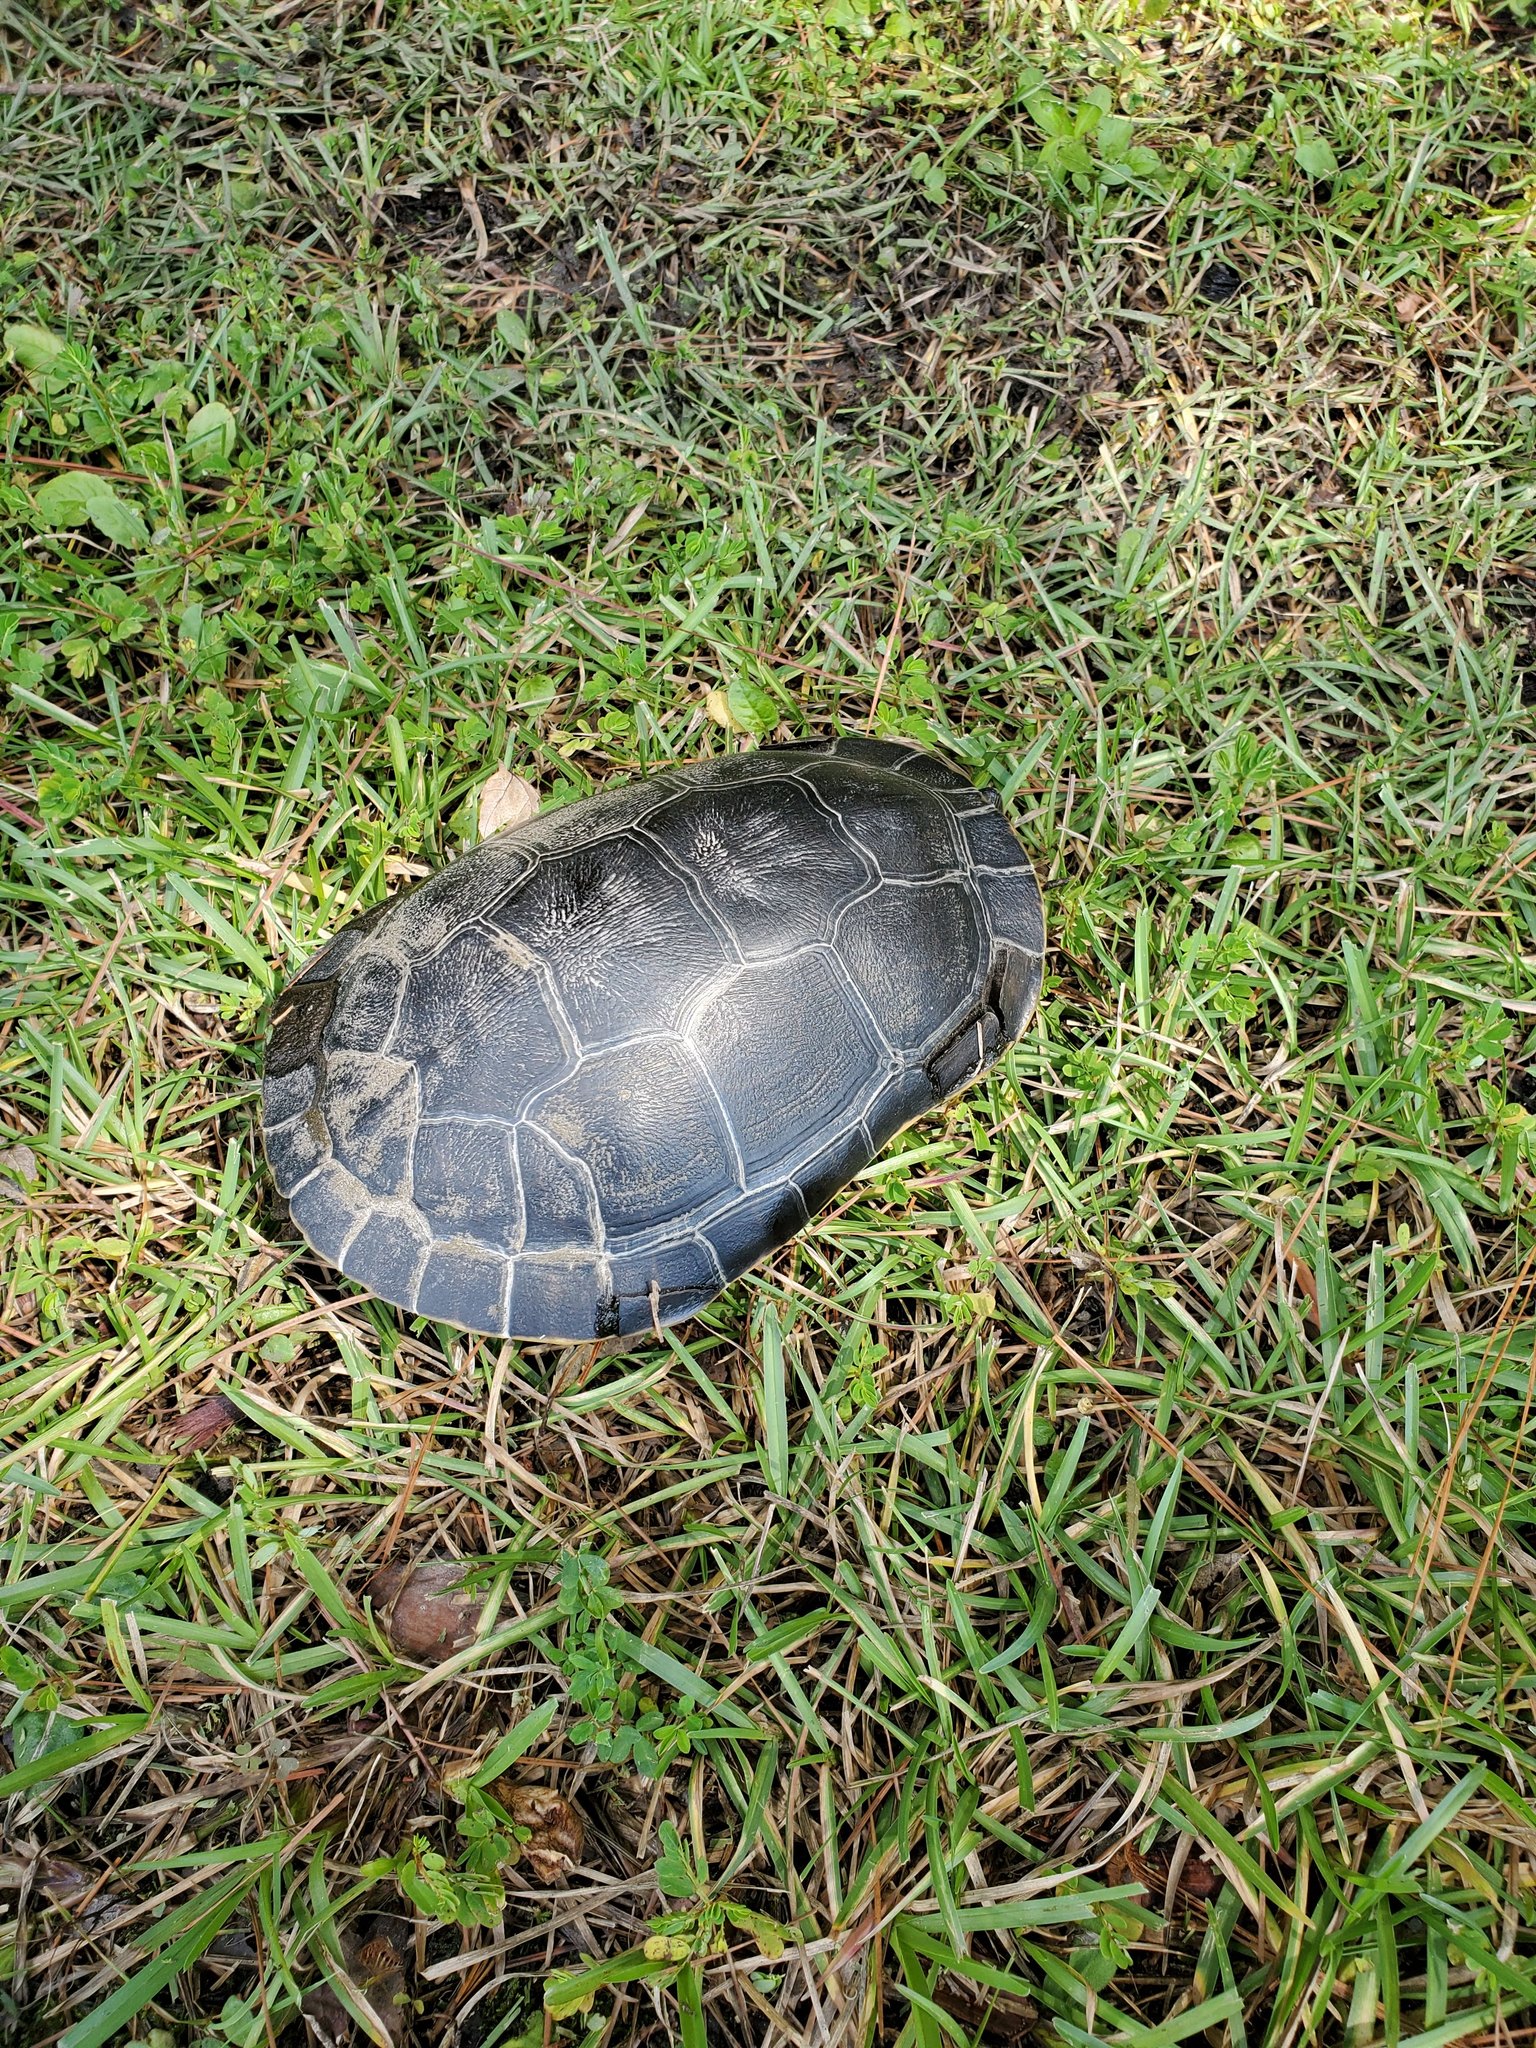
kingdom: Animalia
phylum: Chordata
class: Testudines
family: Emydidae
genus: Deirochelys
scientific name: Deirochelys reticularia
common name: Chicken turtle
